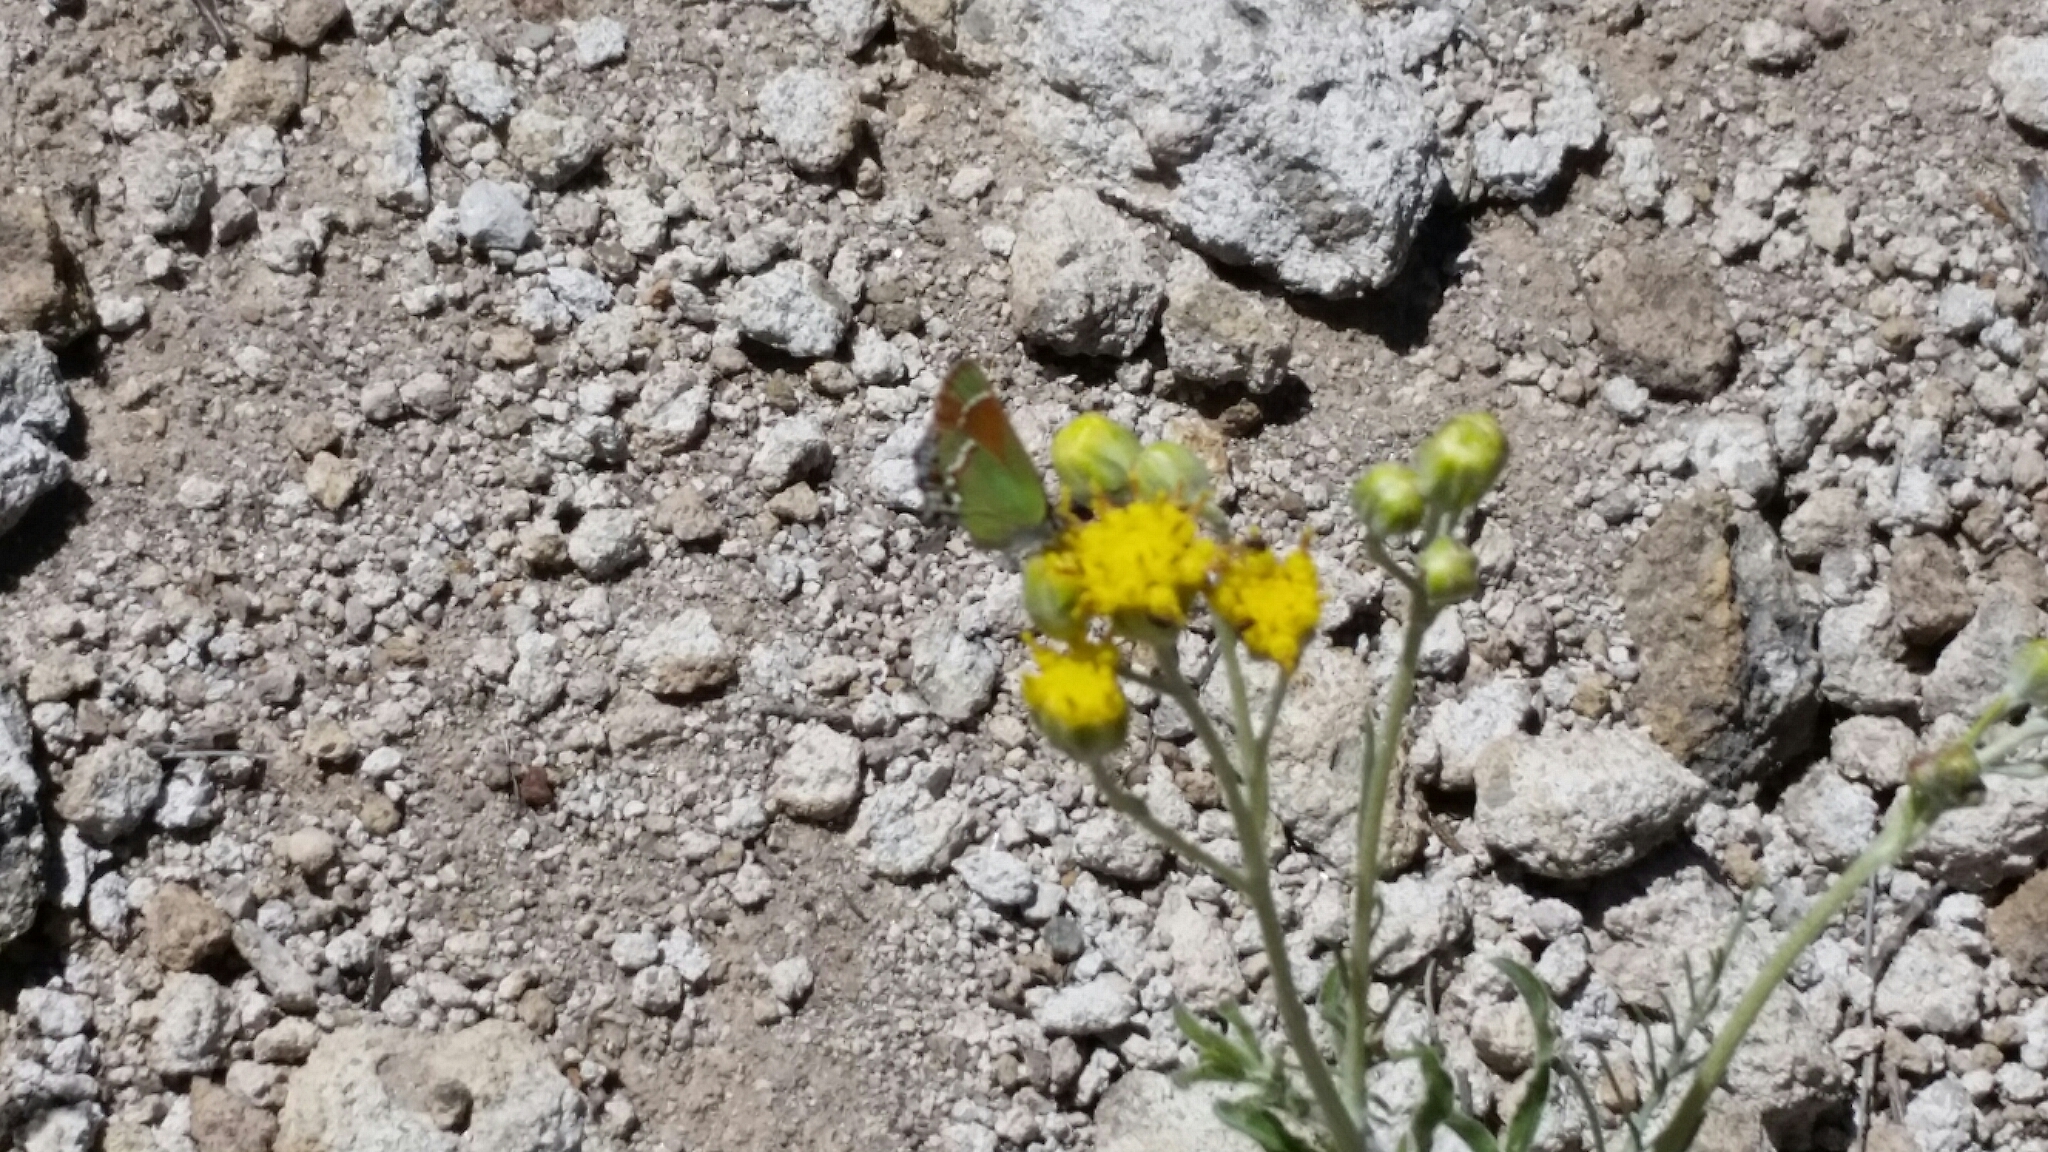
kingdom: Animalia
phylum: Arthropoda
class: Insecta
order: Lepidoptera
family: Lycaenidae
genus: Mitoura
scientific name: Mitoura gryneus
